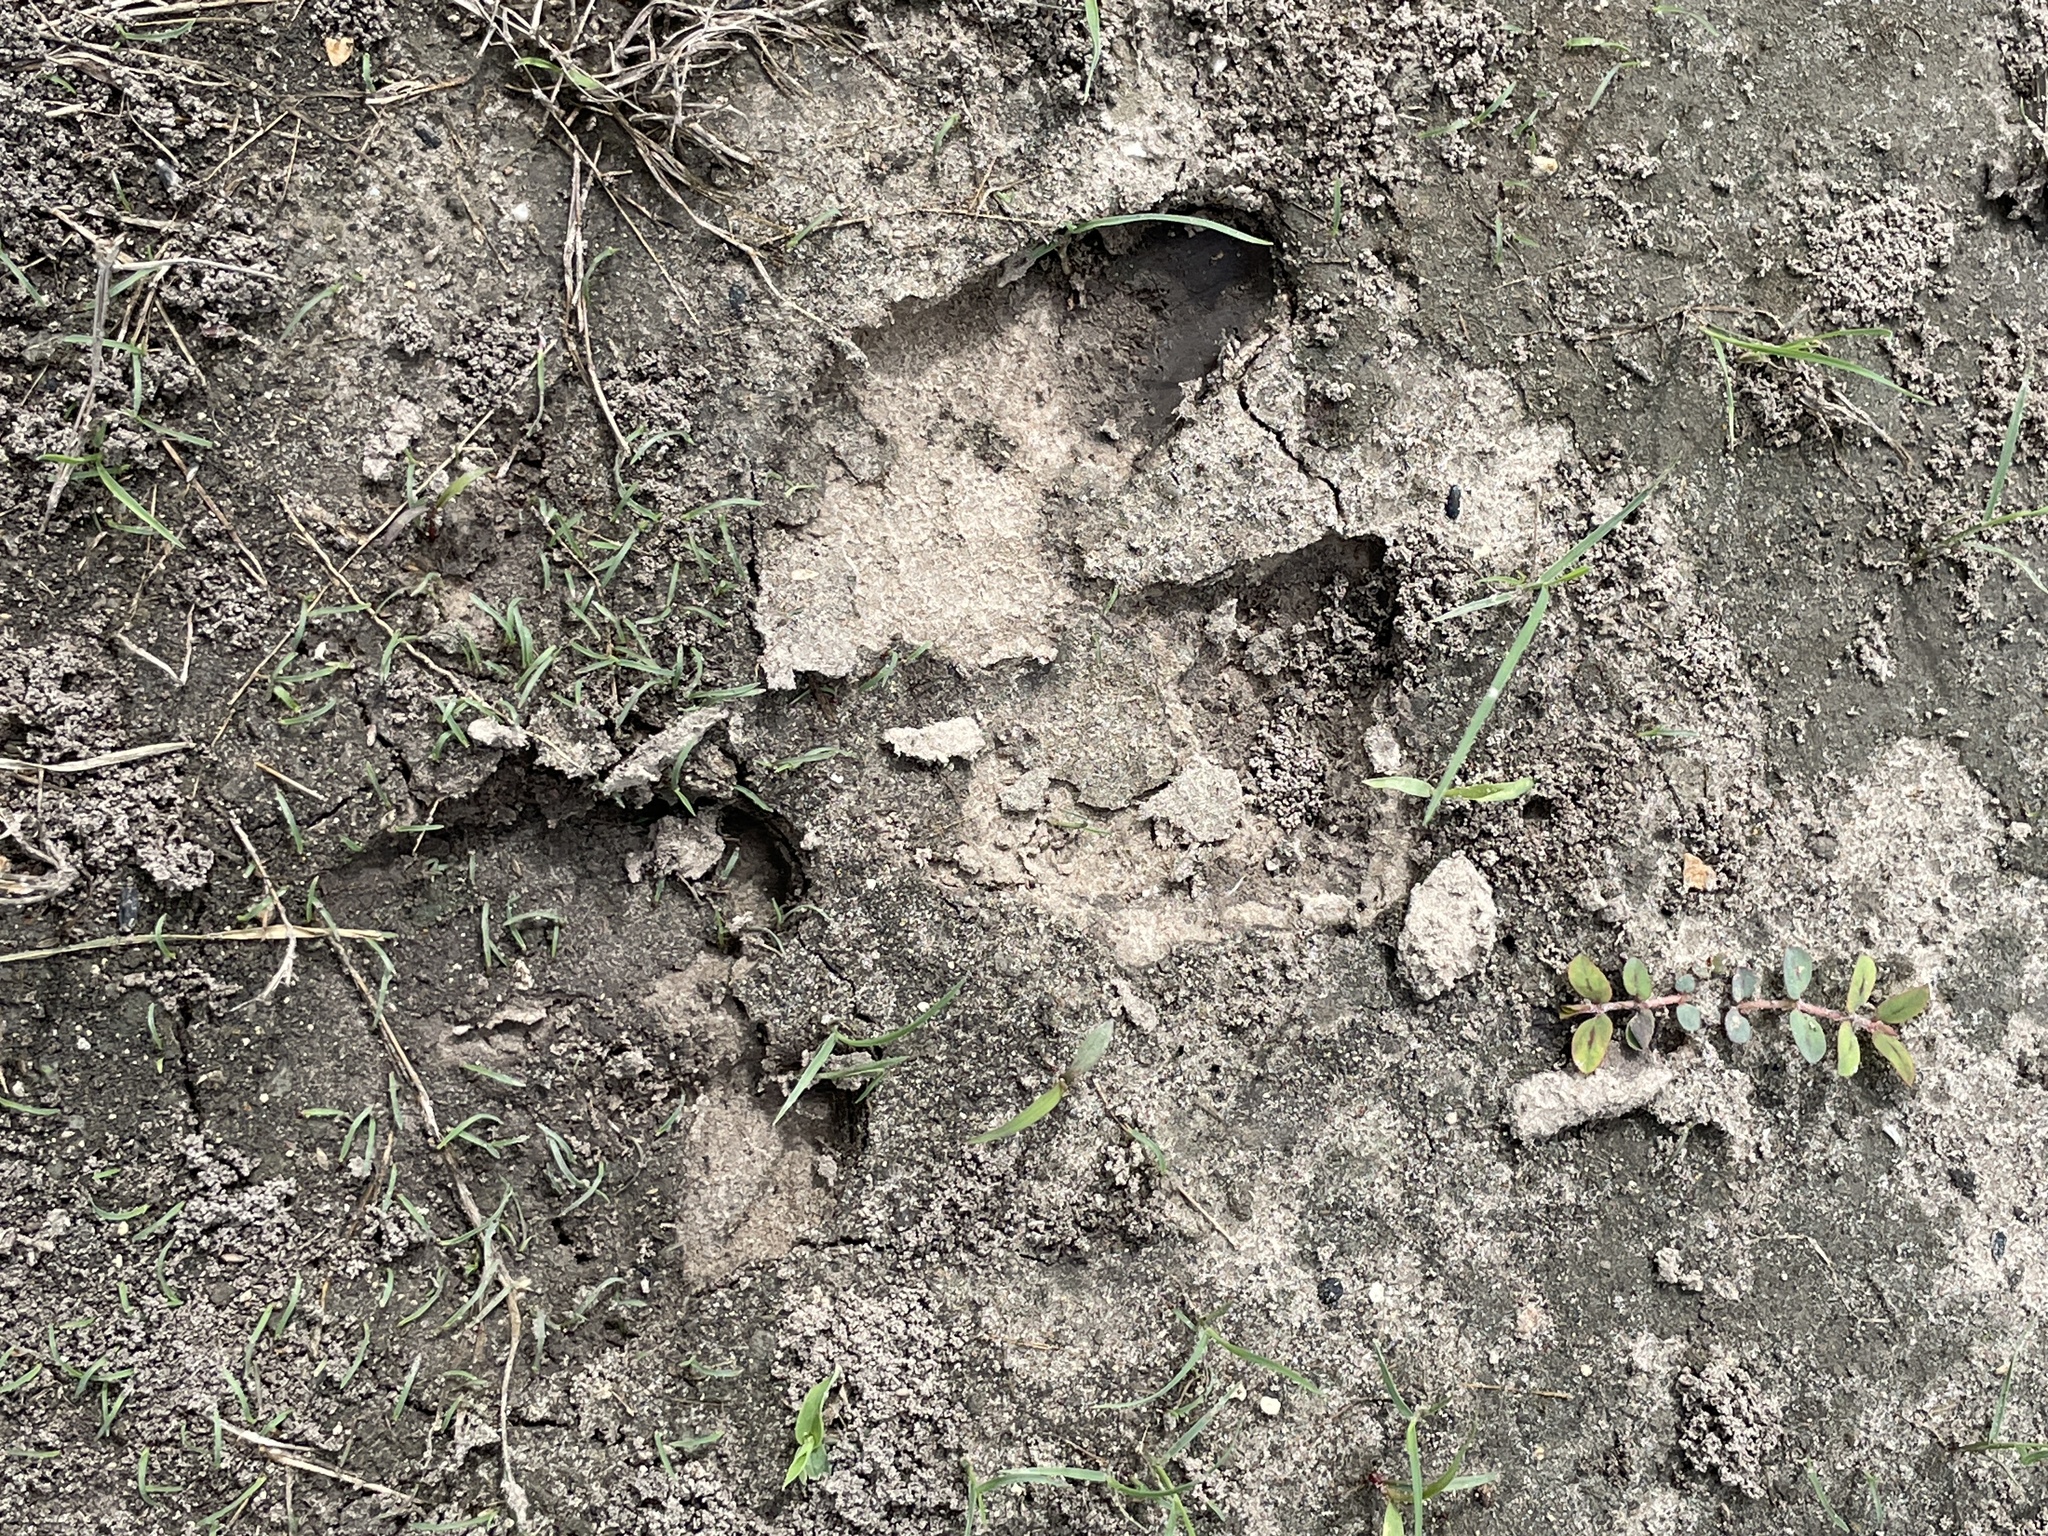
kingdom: Animalia
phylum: Chordata
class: Mammalia
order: Artiodactyla
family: Suidae
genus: Sus
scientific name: Sus scrofa
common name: Wild boar
